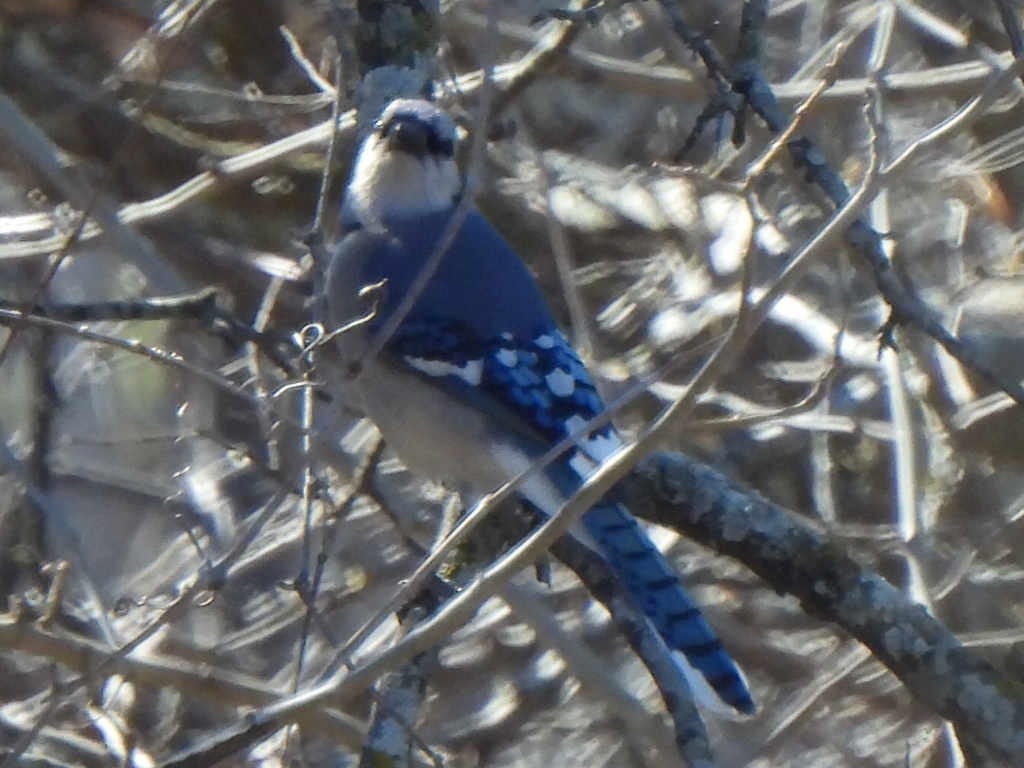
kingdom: Animalia
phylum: Chordata
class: Aves
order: Passeriformes
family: Corvidae
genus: Cyanocitta
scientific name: Cyanocitta cristata
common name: Blue jay
